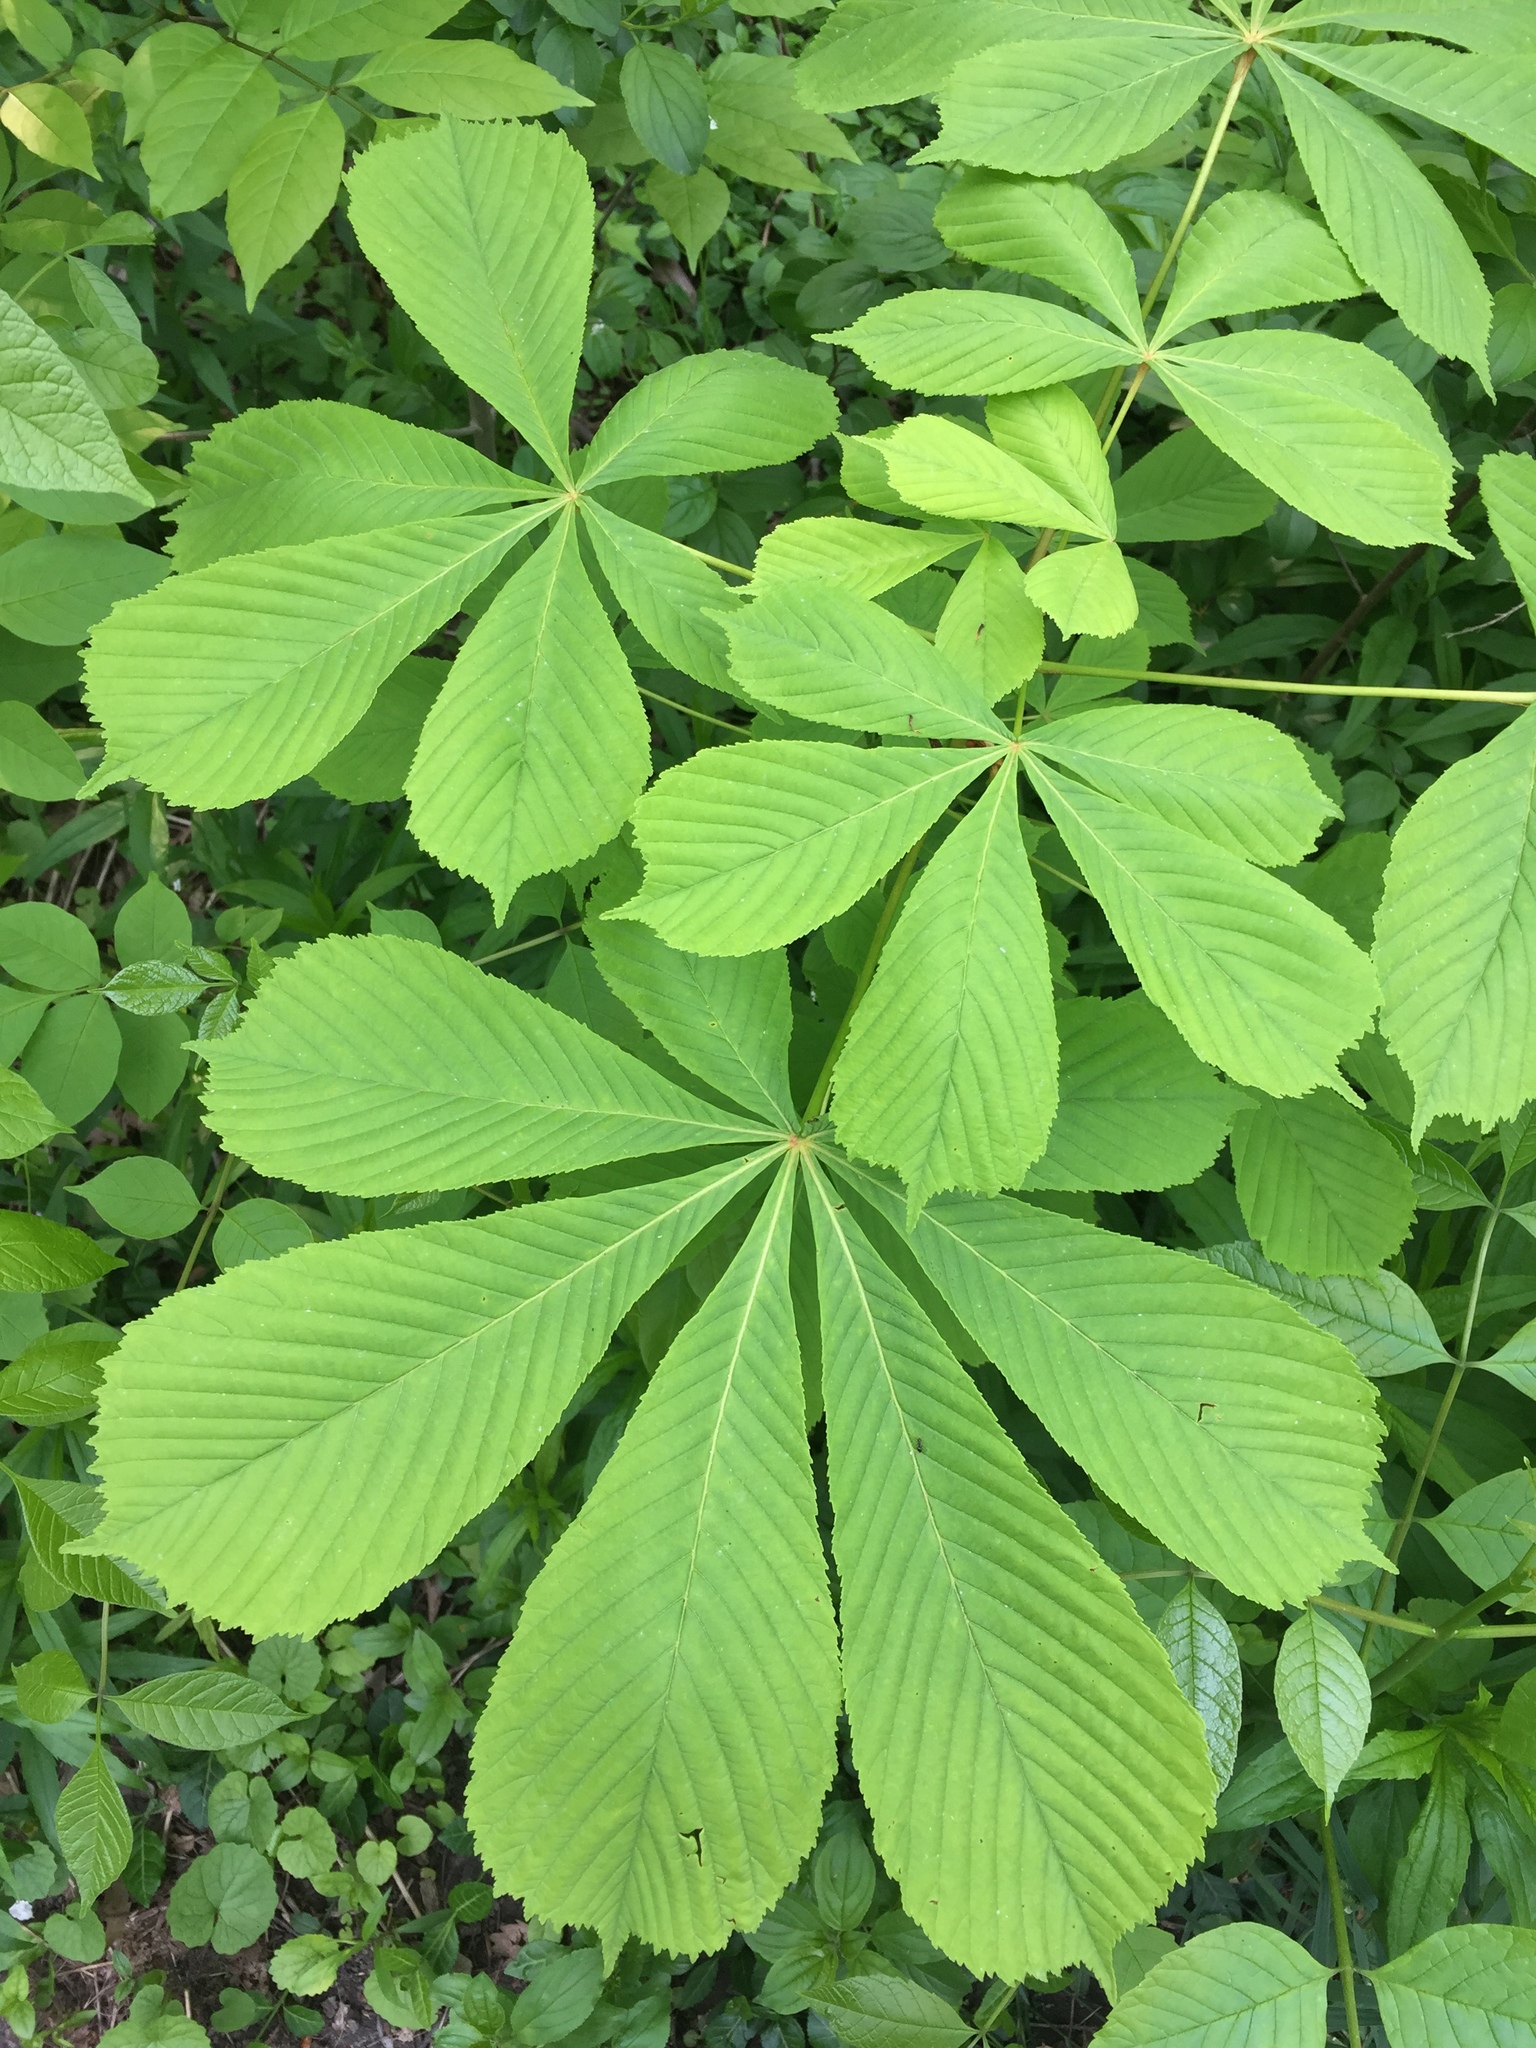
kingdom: Plantae
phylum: Tracheophyta
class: Magnoliopsida
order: Sapindales
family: Sapindaceae
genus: Aesculus
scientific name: Aesculus hippocastanum
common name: Horse-chestnut
